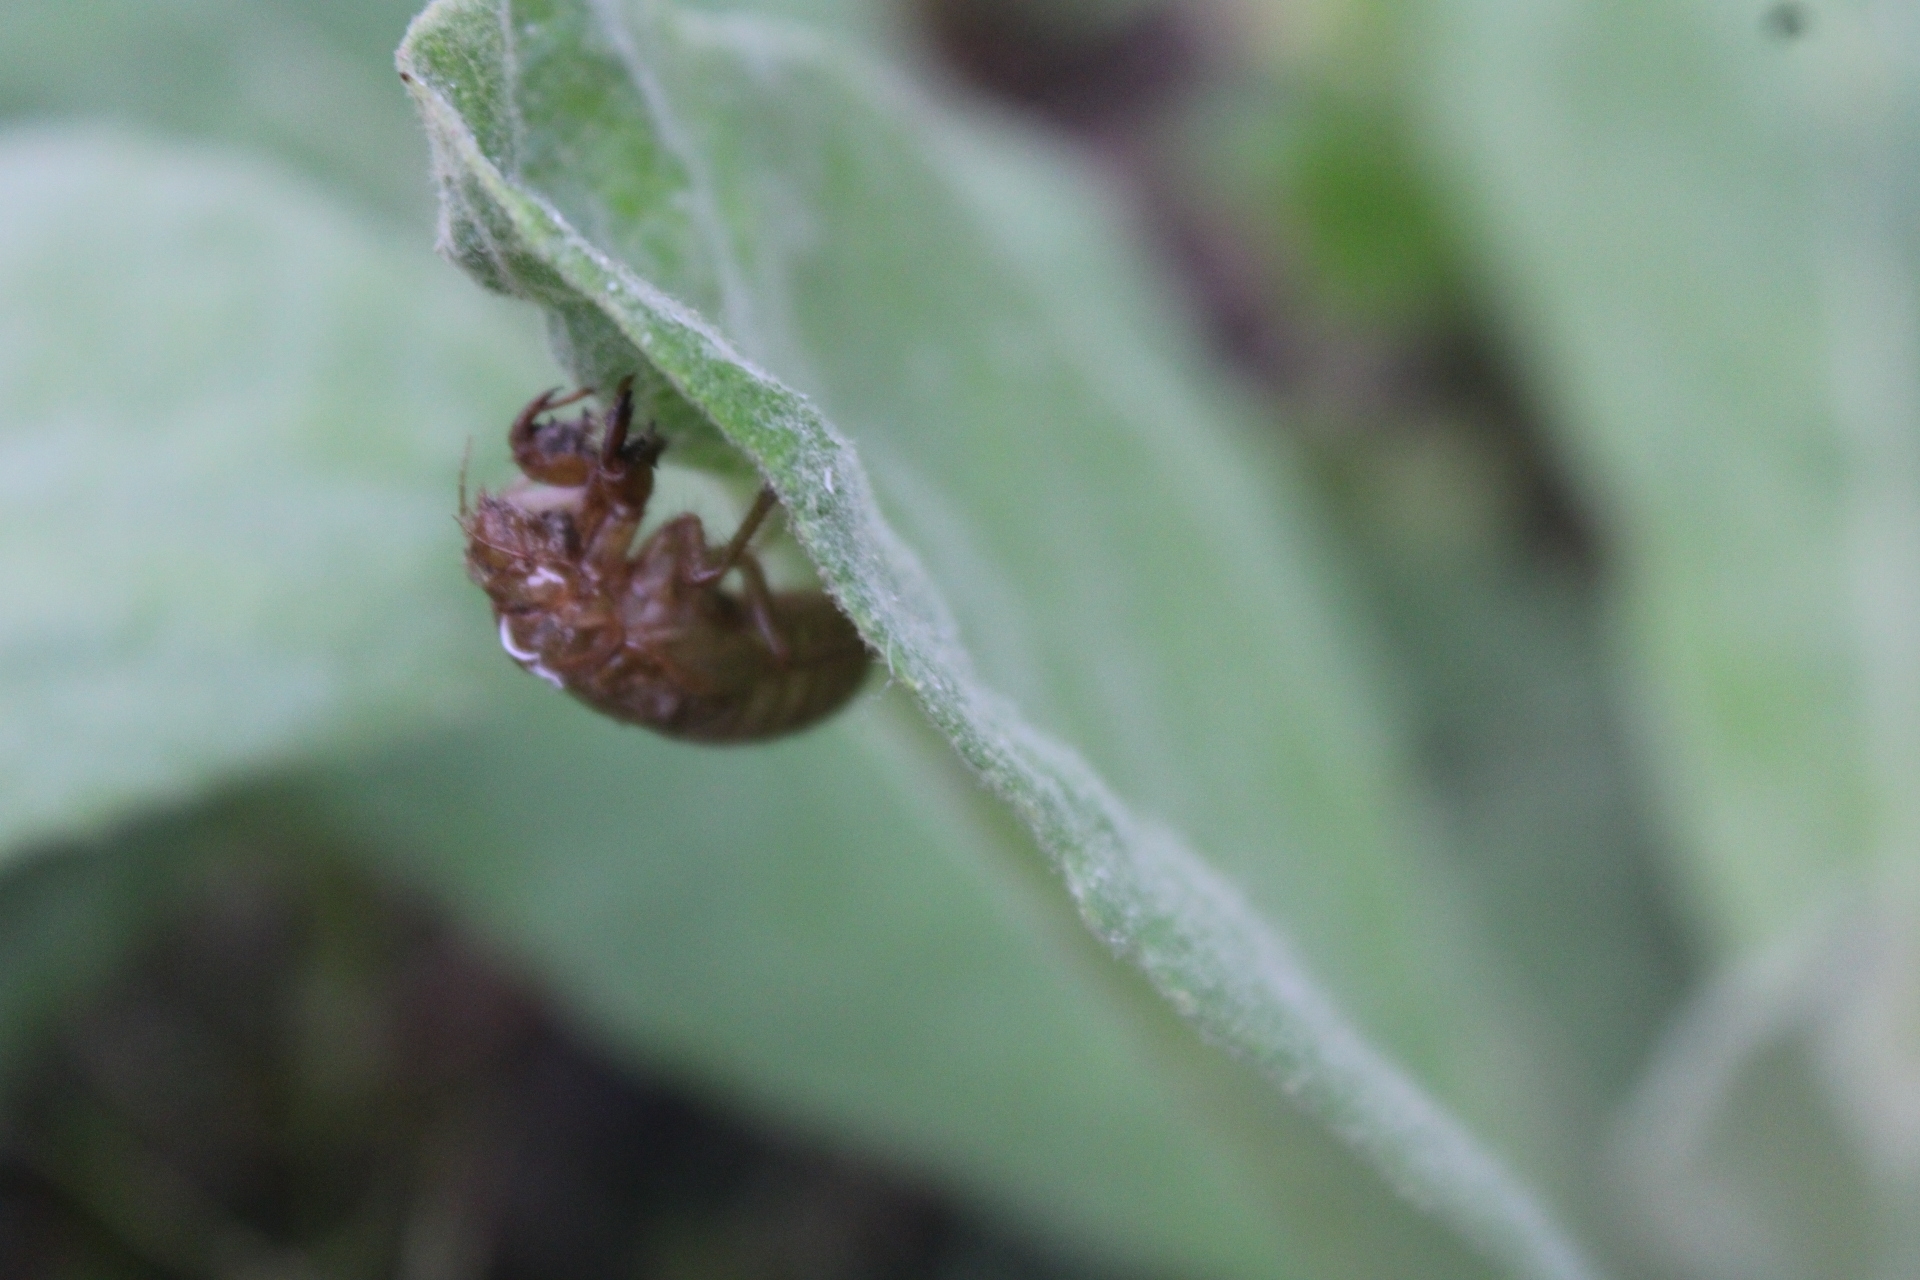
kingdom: Animalia
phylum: Arthropoda
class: Insecta
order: Hemiptera
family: Cicadidae
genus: Magicicada
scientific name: Magicicada
